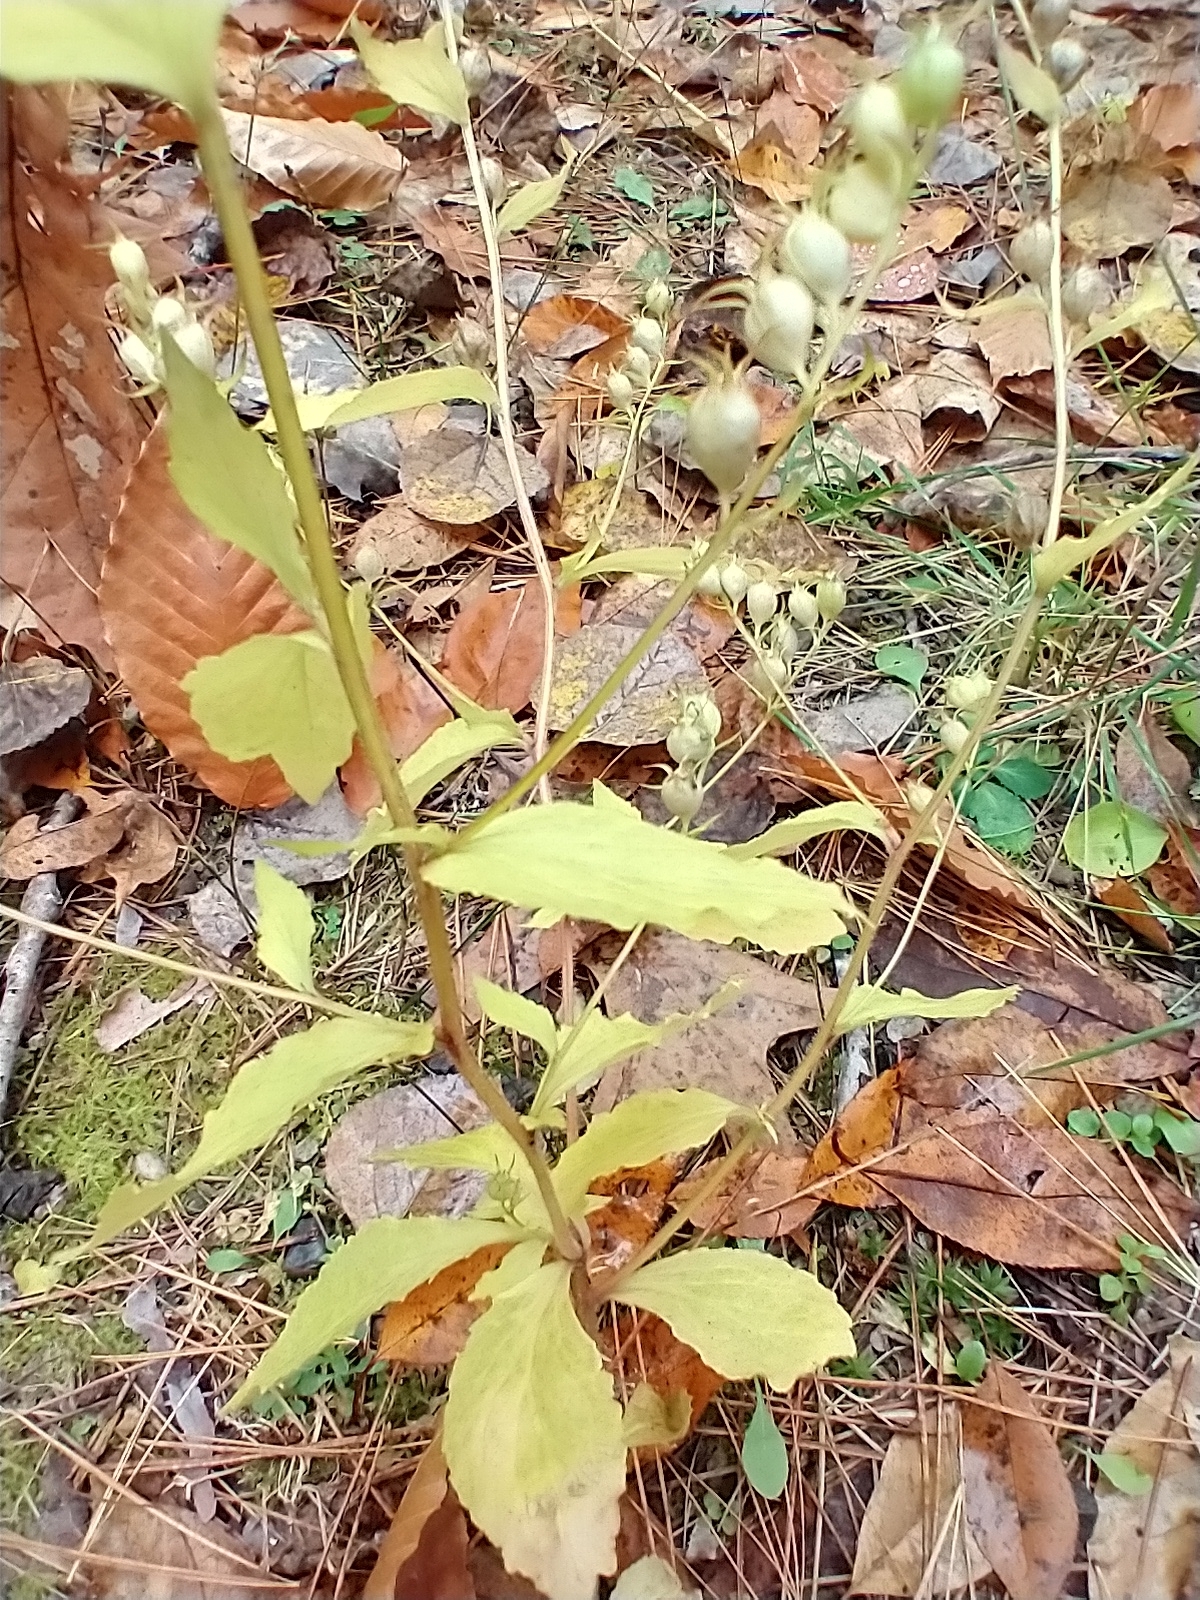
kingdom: Plantae
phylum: Tracheophyta
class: Magnoliopsida
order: Asterales
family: Campanulaceae
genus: Lobelia
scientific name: Lobelia inflata
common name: Indian tobacco
